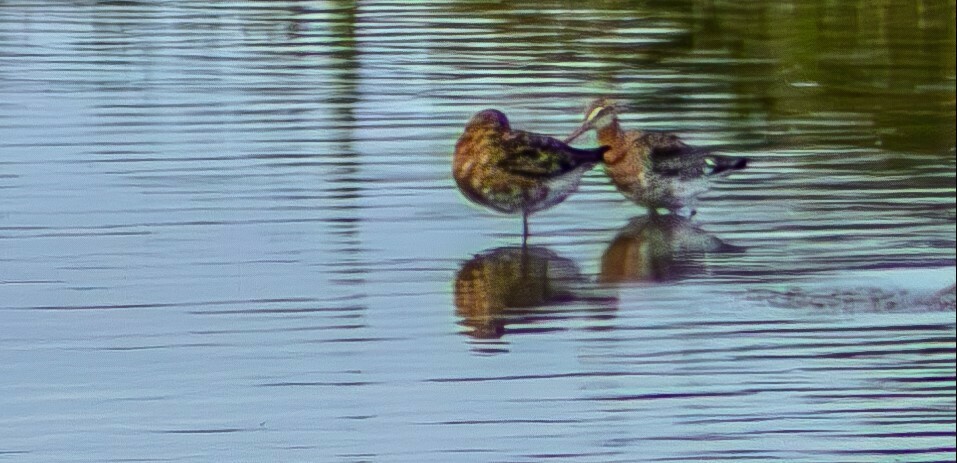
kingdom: Animalia
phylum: Chordata
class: Aves
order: Charadriiformes
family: Scolopacidae
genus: Limosa
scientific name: Limosa limosa
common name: Black-tailed godwit
